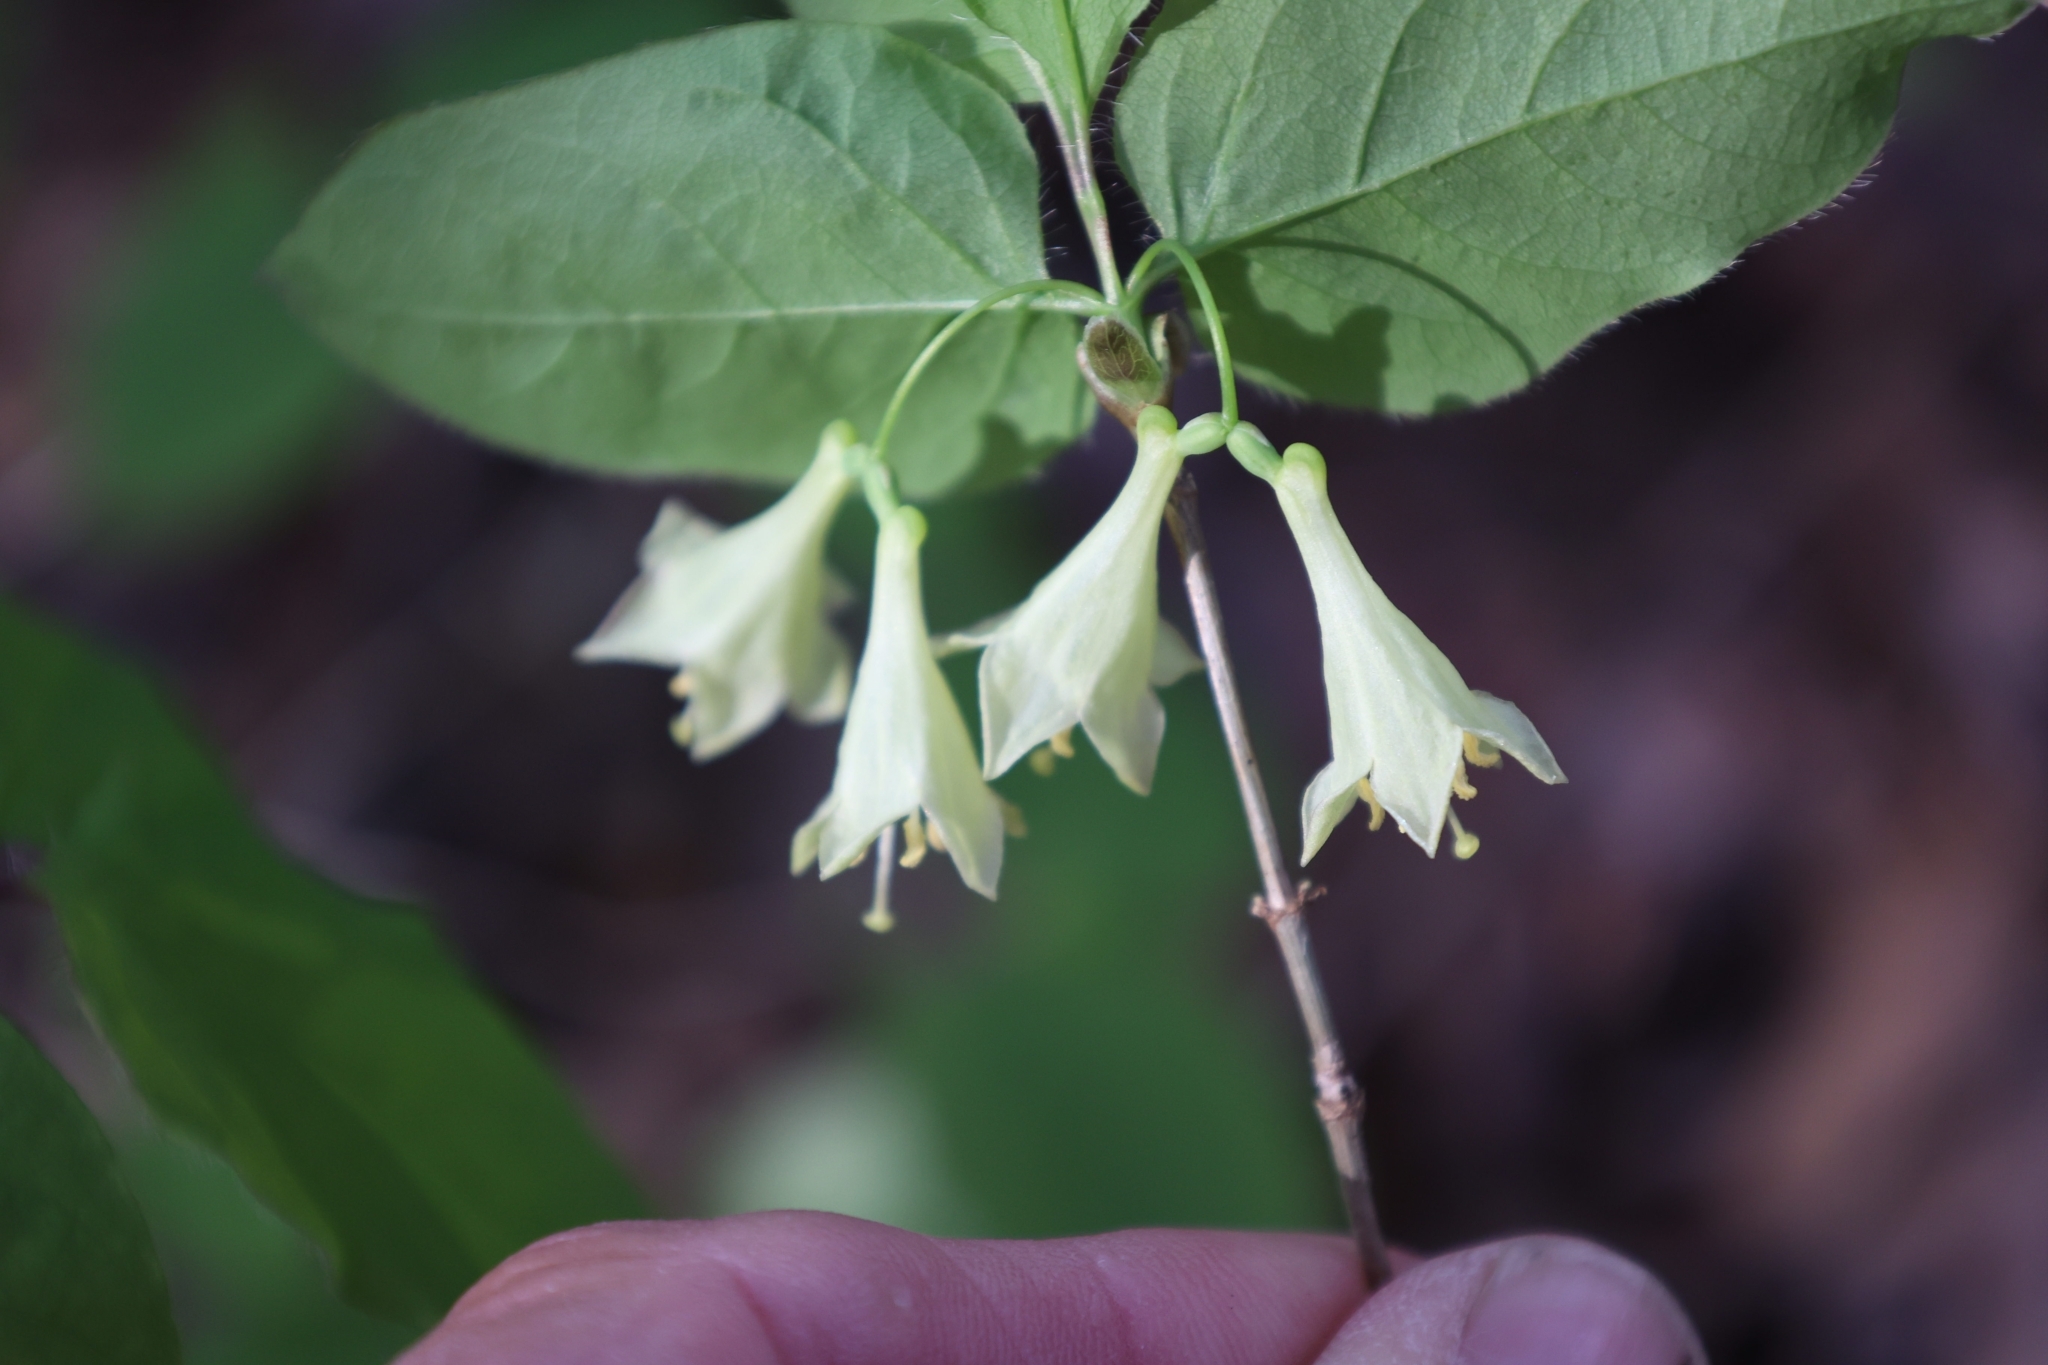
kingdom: Plantae
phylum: Tracheophyta
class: Magnoliopsida
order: Dipsacales
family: Caprifoliaceae
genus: Lonicera
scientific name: Lonicera canadensis
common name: American fly-honeysuckle
